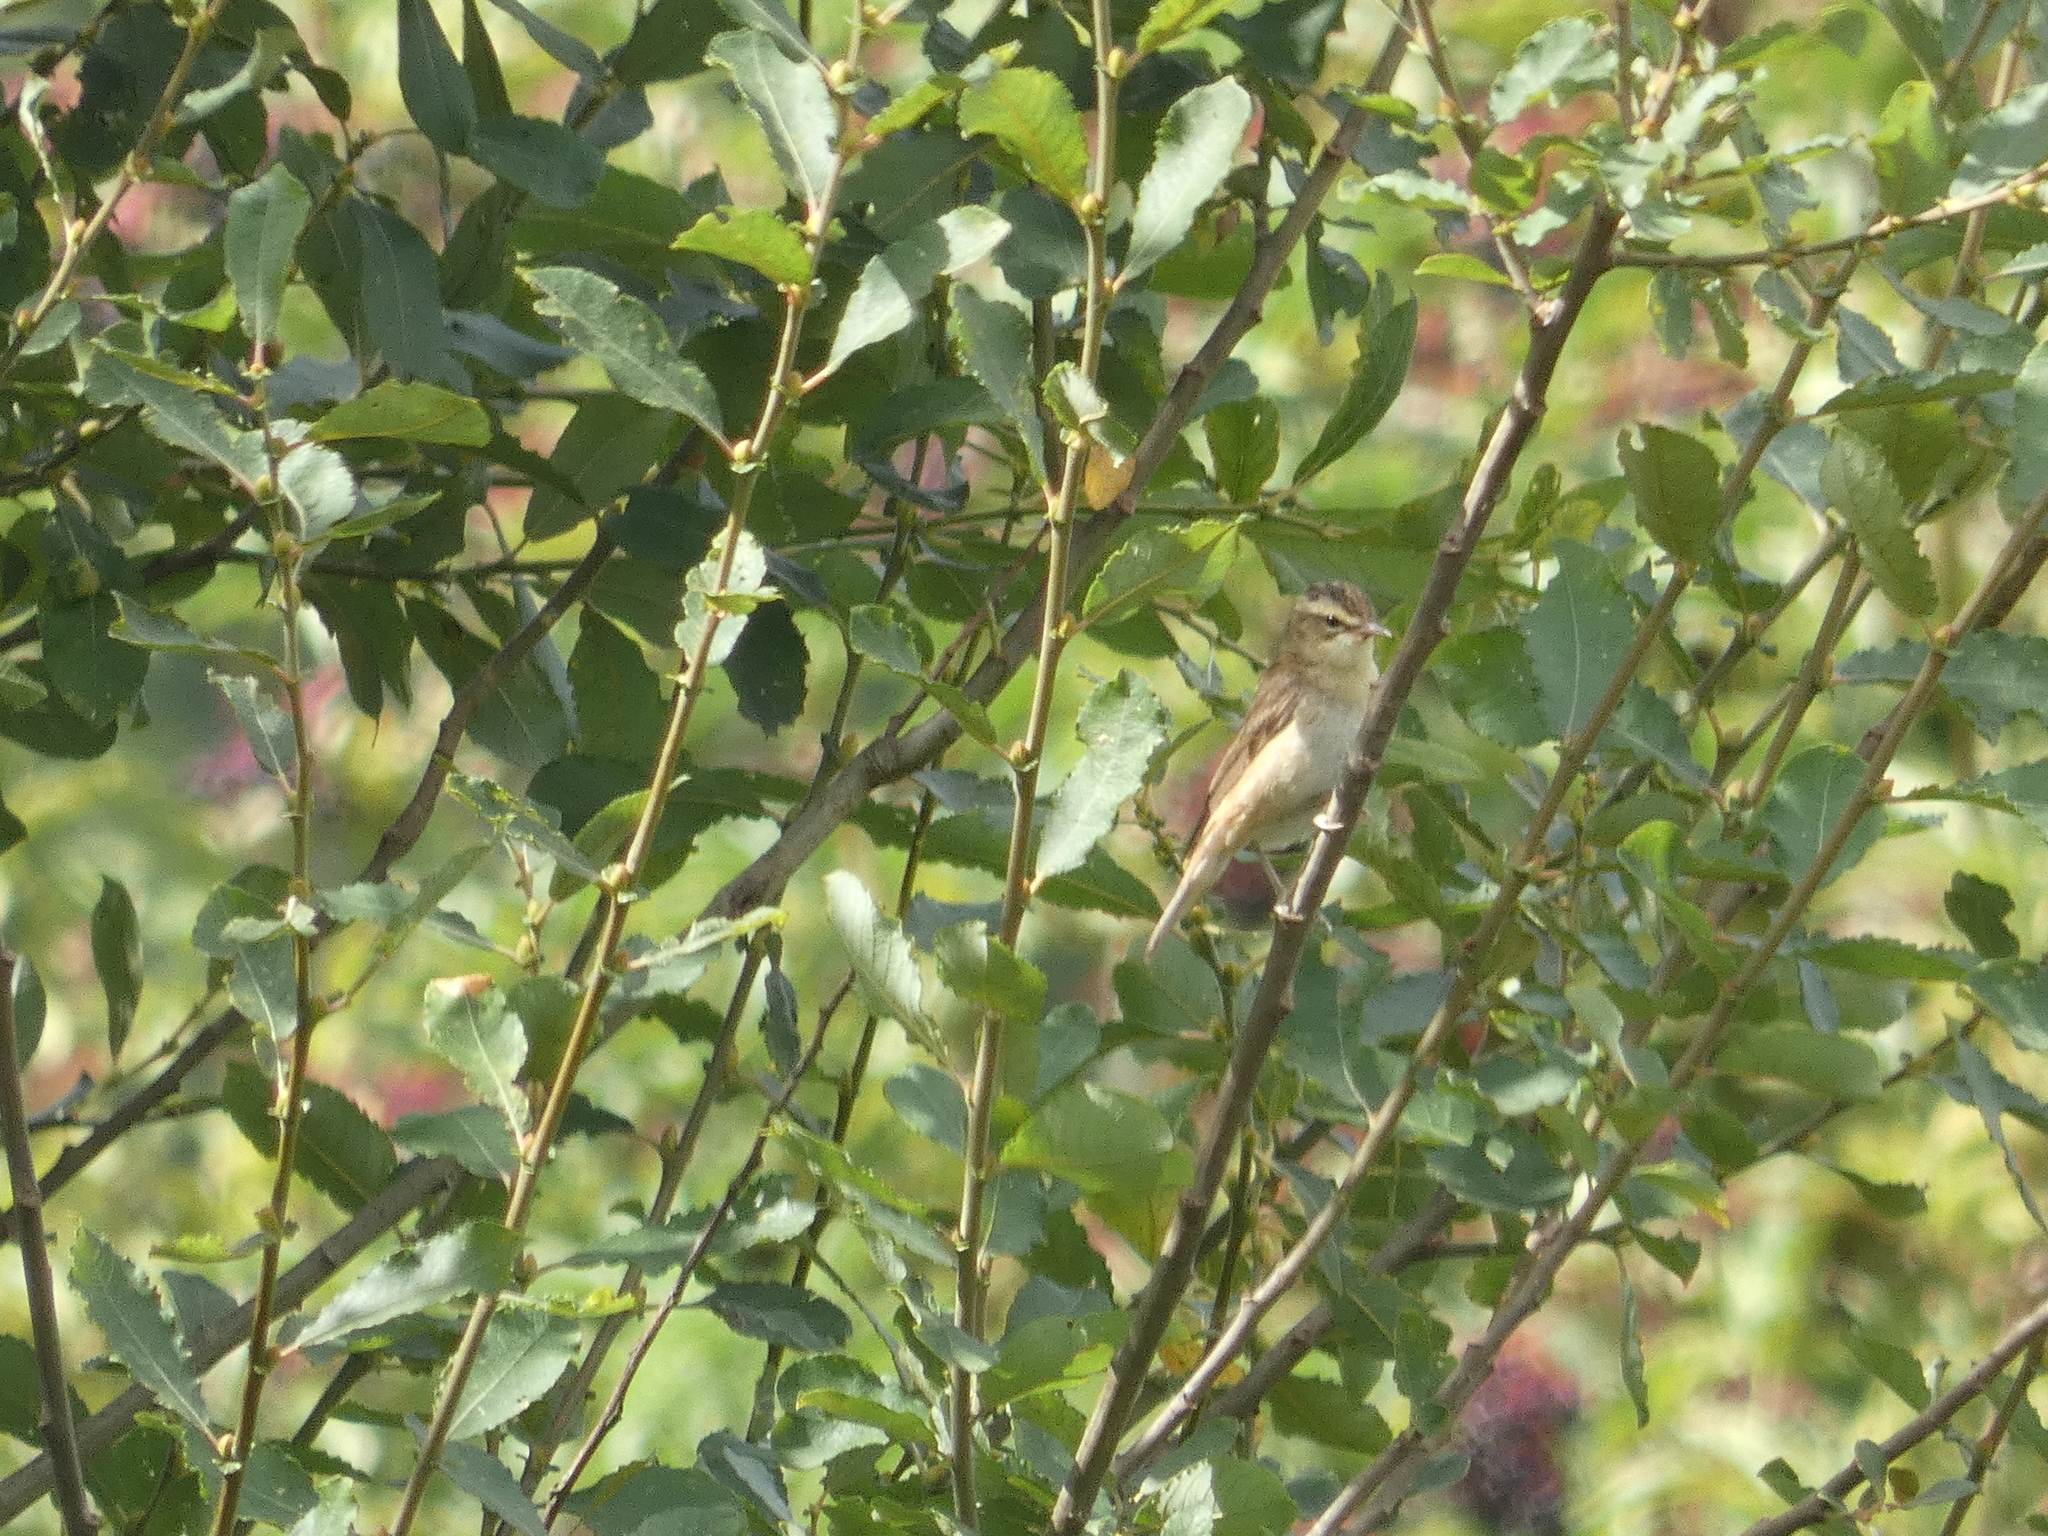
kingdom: Animalia
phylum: Chordata
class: Aves
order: Passeriformes
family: Acrocephalidae
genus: Acrocephalus
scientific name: Acrocephalus schoenobaenus
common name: Sedge warbler
